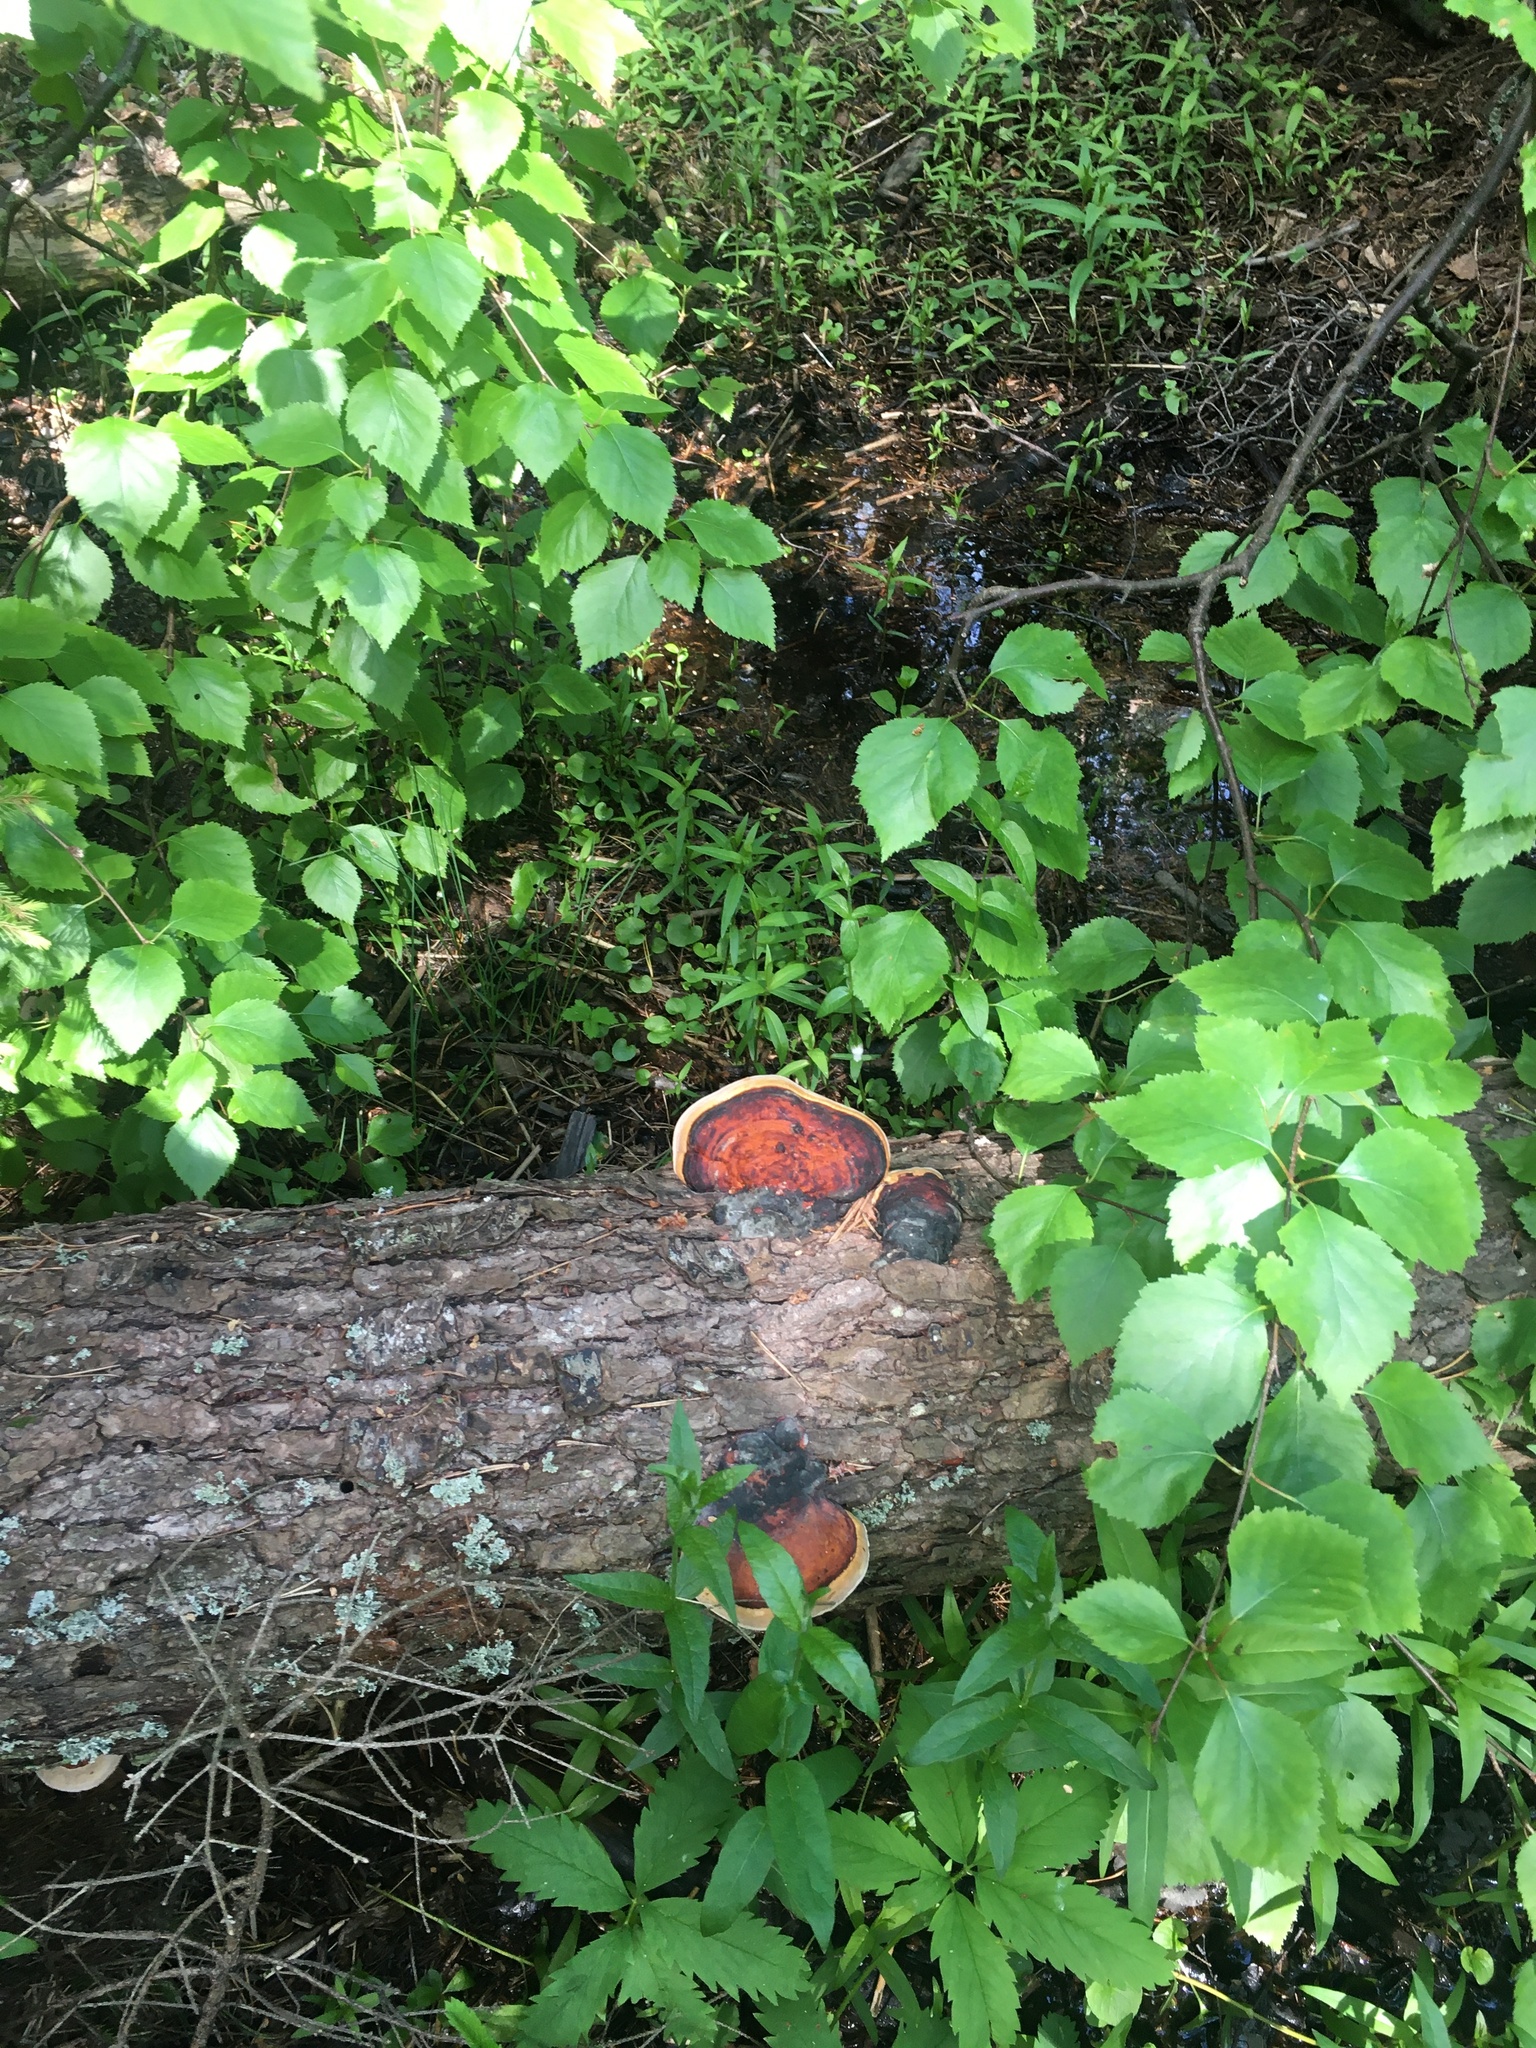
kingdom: Fungi
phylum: Basidiomycota
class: Agaricomycetes
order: Polyporales
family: Fomitopsidaceae
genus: Fomitopsis
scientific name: Fomitopsis pinicola
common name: Red-belted bracket
